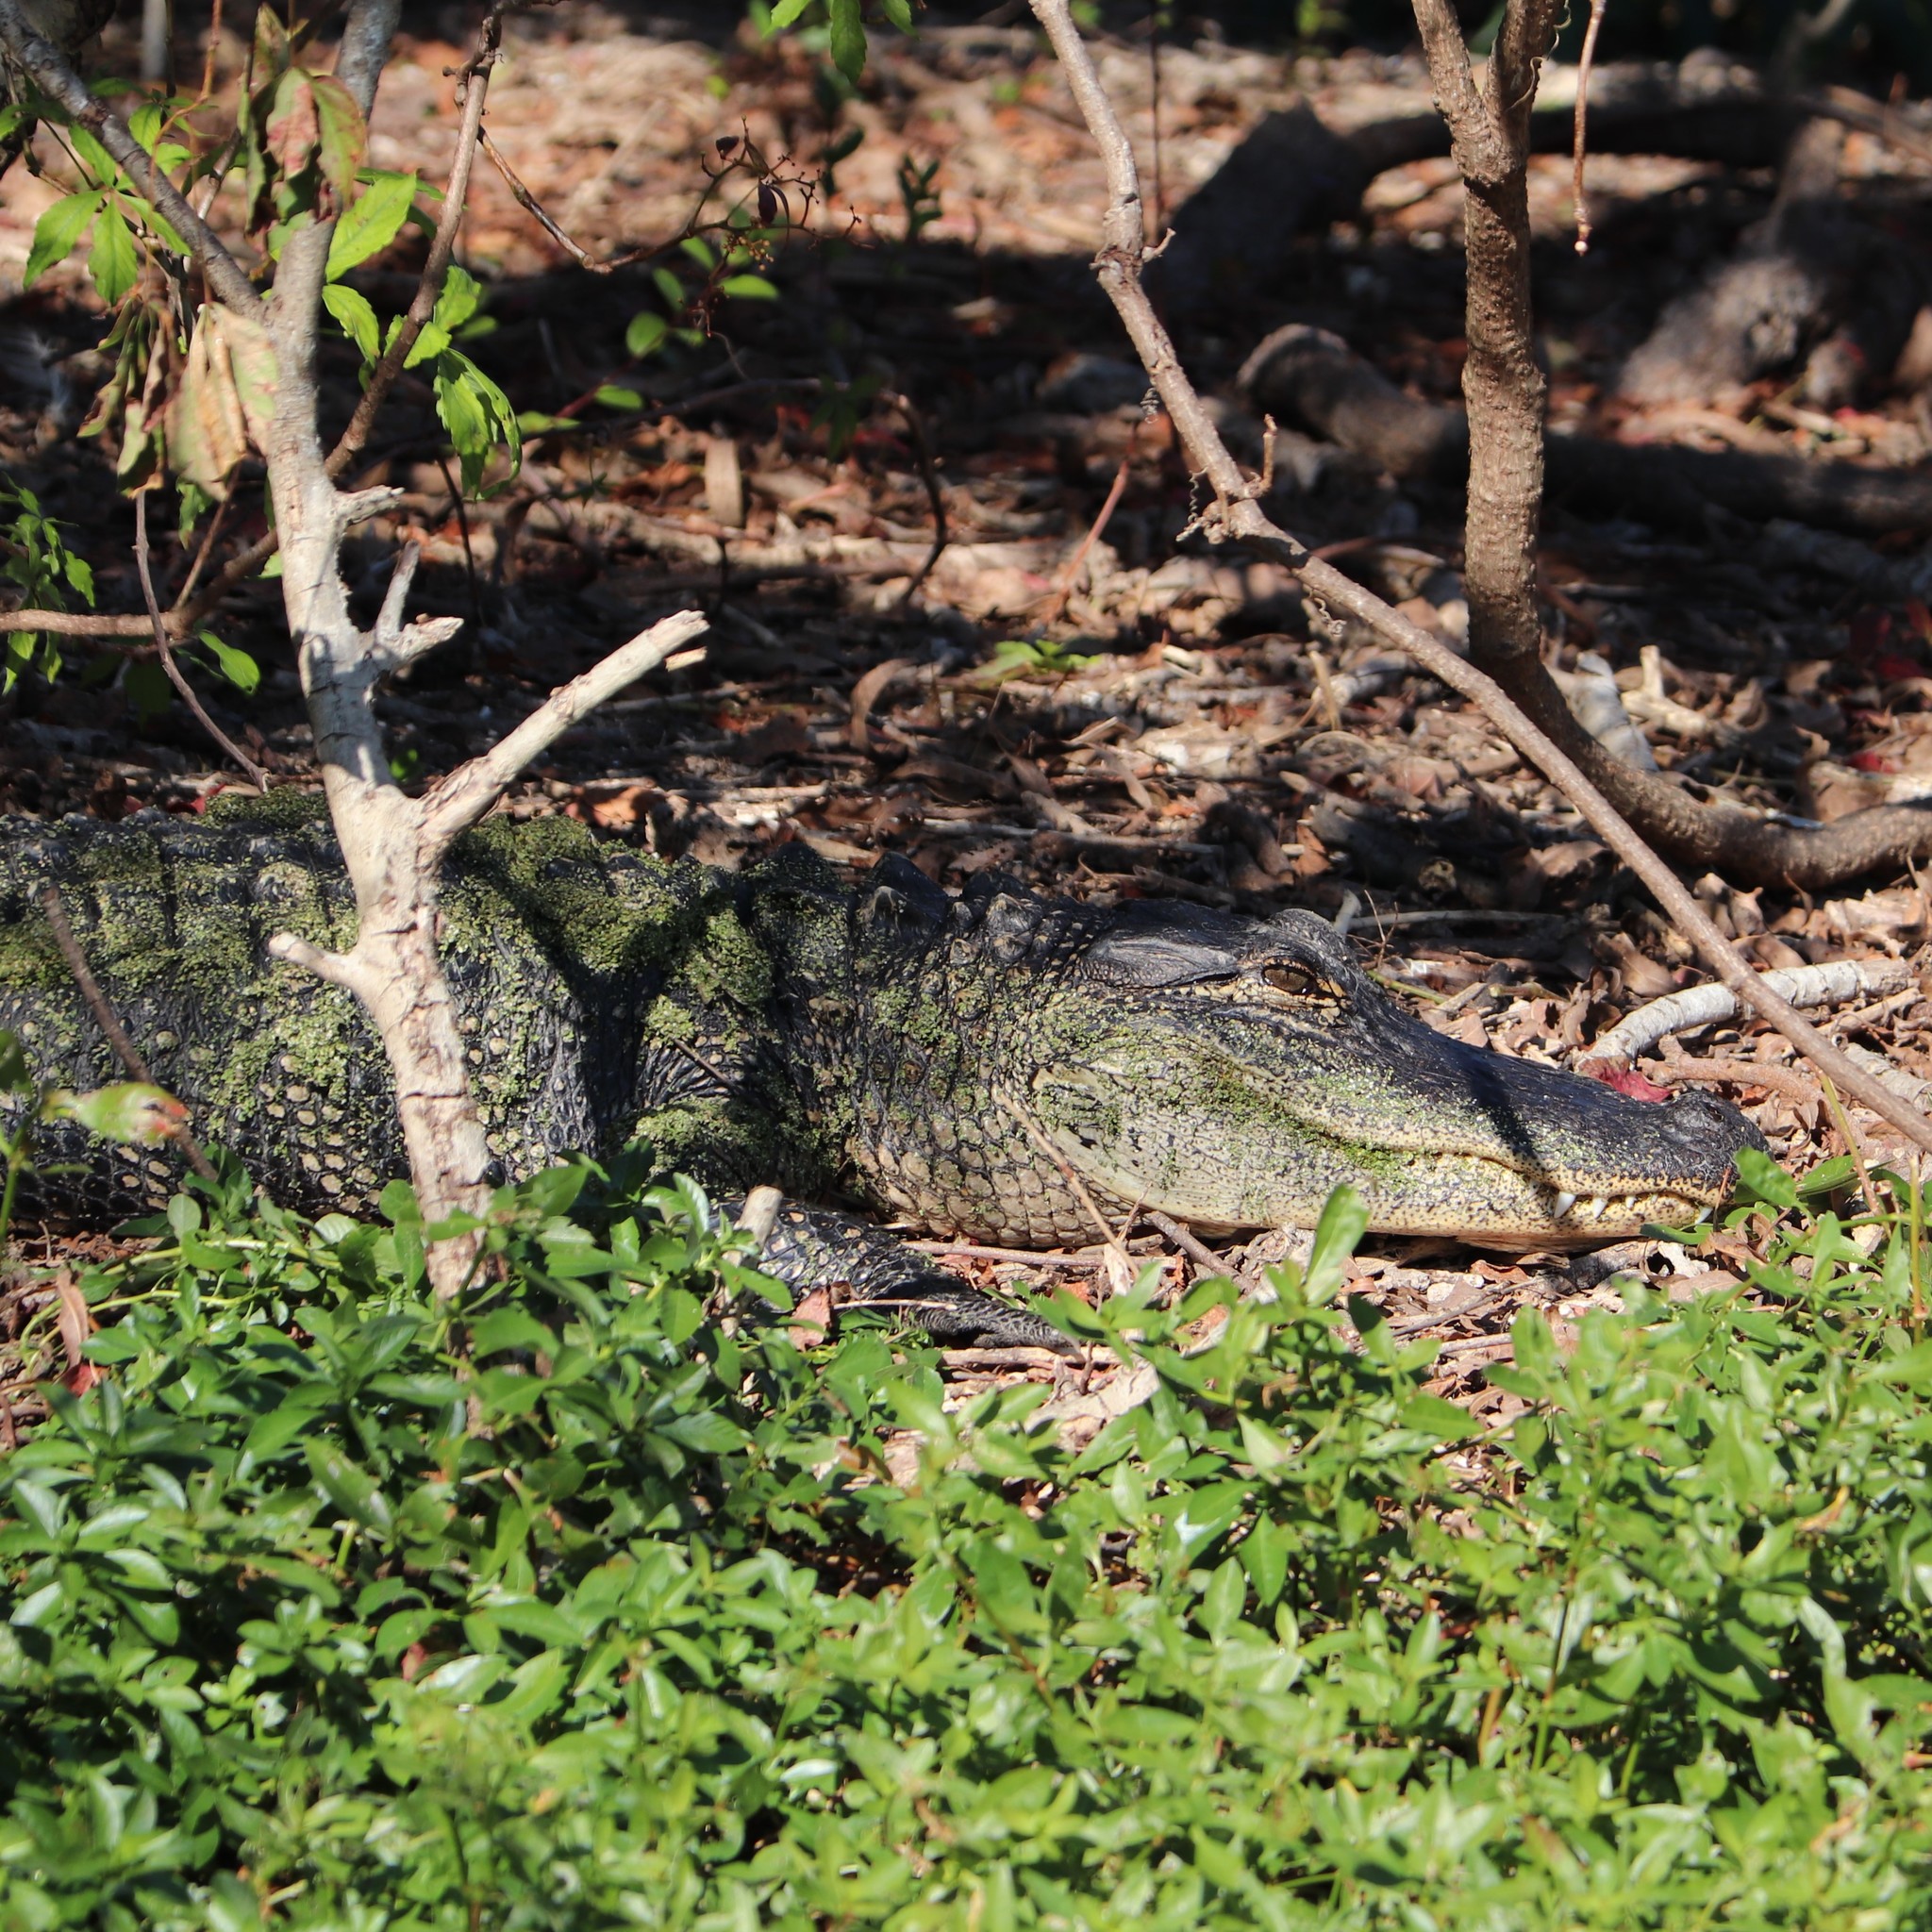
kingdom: Animalia
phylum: Chordata
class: Crocodylia
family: Alligatoridae
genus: Alligator
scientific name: Alligator mississippiensis
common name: American alligator
